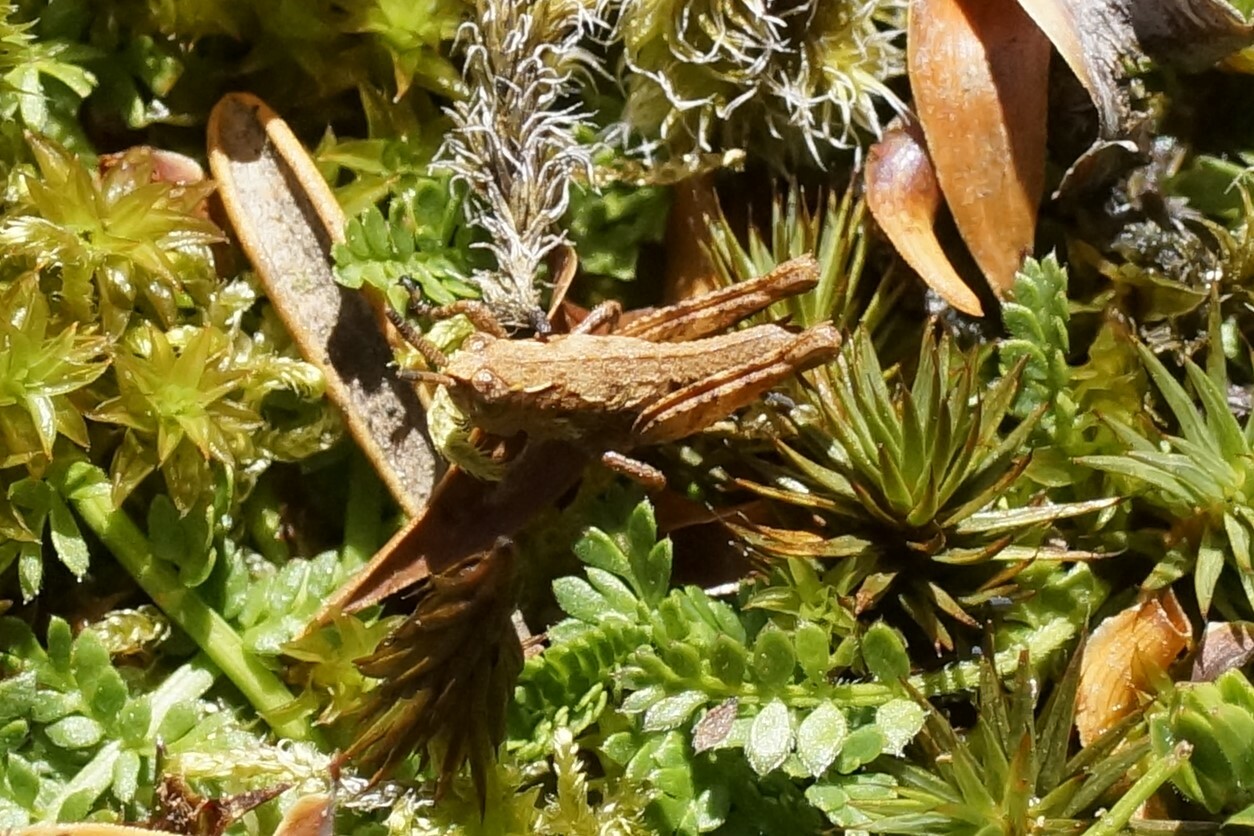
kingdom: Animalia
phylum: Arthropoda
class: Insecta
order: Orthoptera
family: Acrididae
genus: Tasmaniacris
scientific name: Tasmaniacris tasmaniensis
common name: Tasmanian grasshopper
